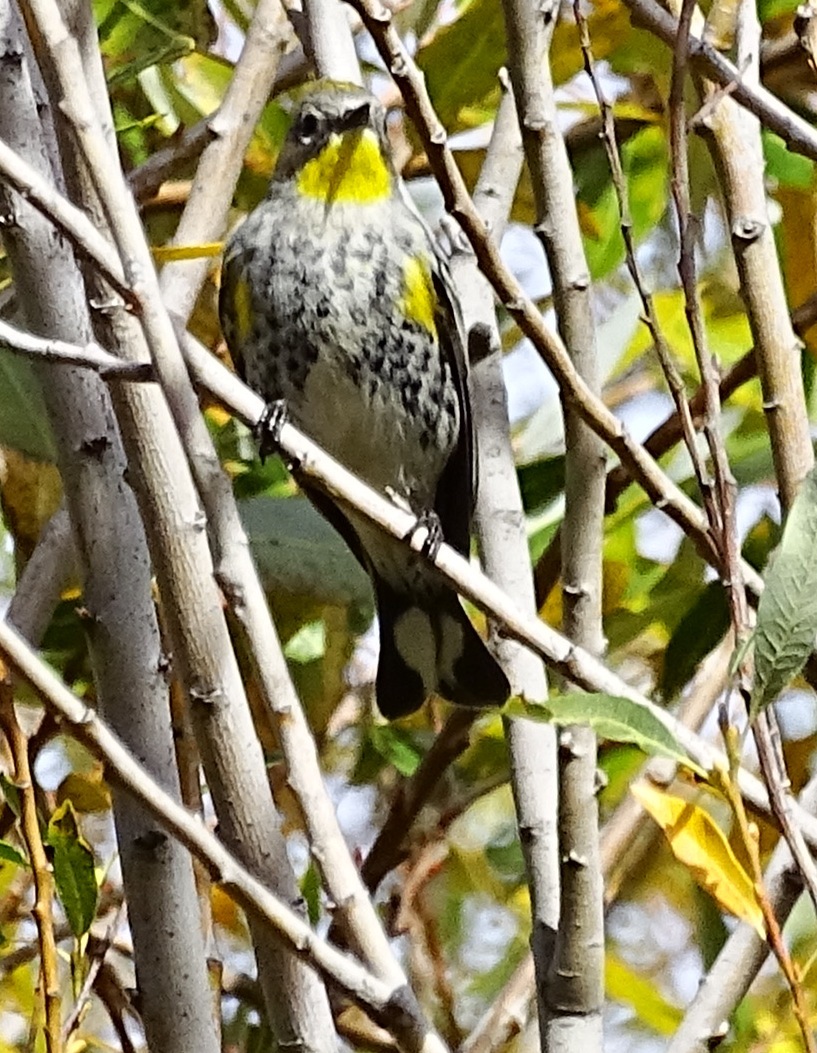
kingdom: Animalia
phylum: Chordata
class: Aves
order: Passeriformes
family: Parulidae
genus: Setophaga
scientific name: Setophaga auduboni
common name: Audubon's warbler
